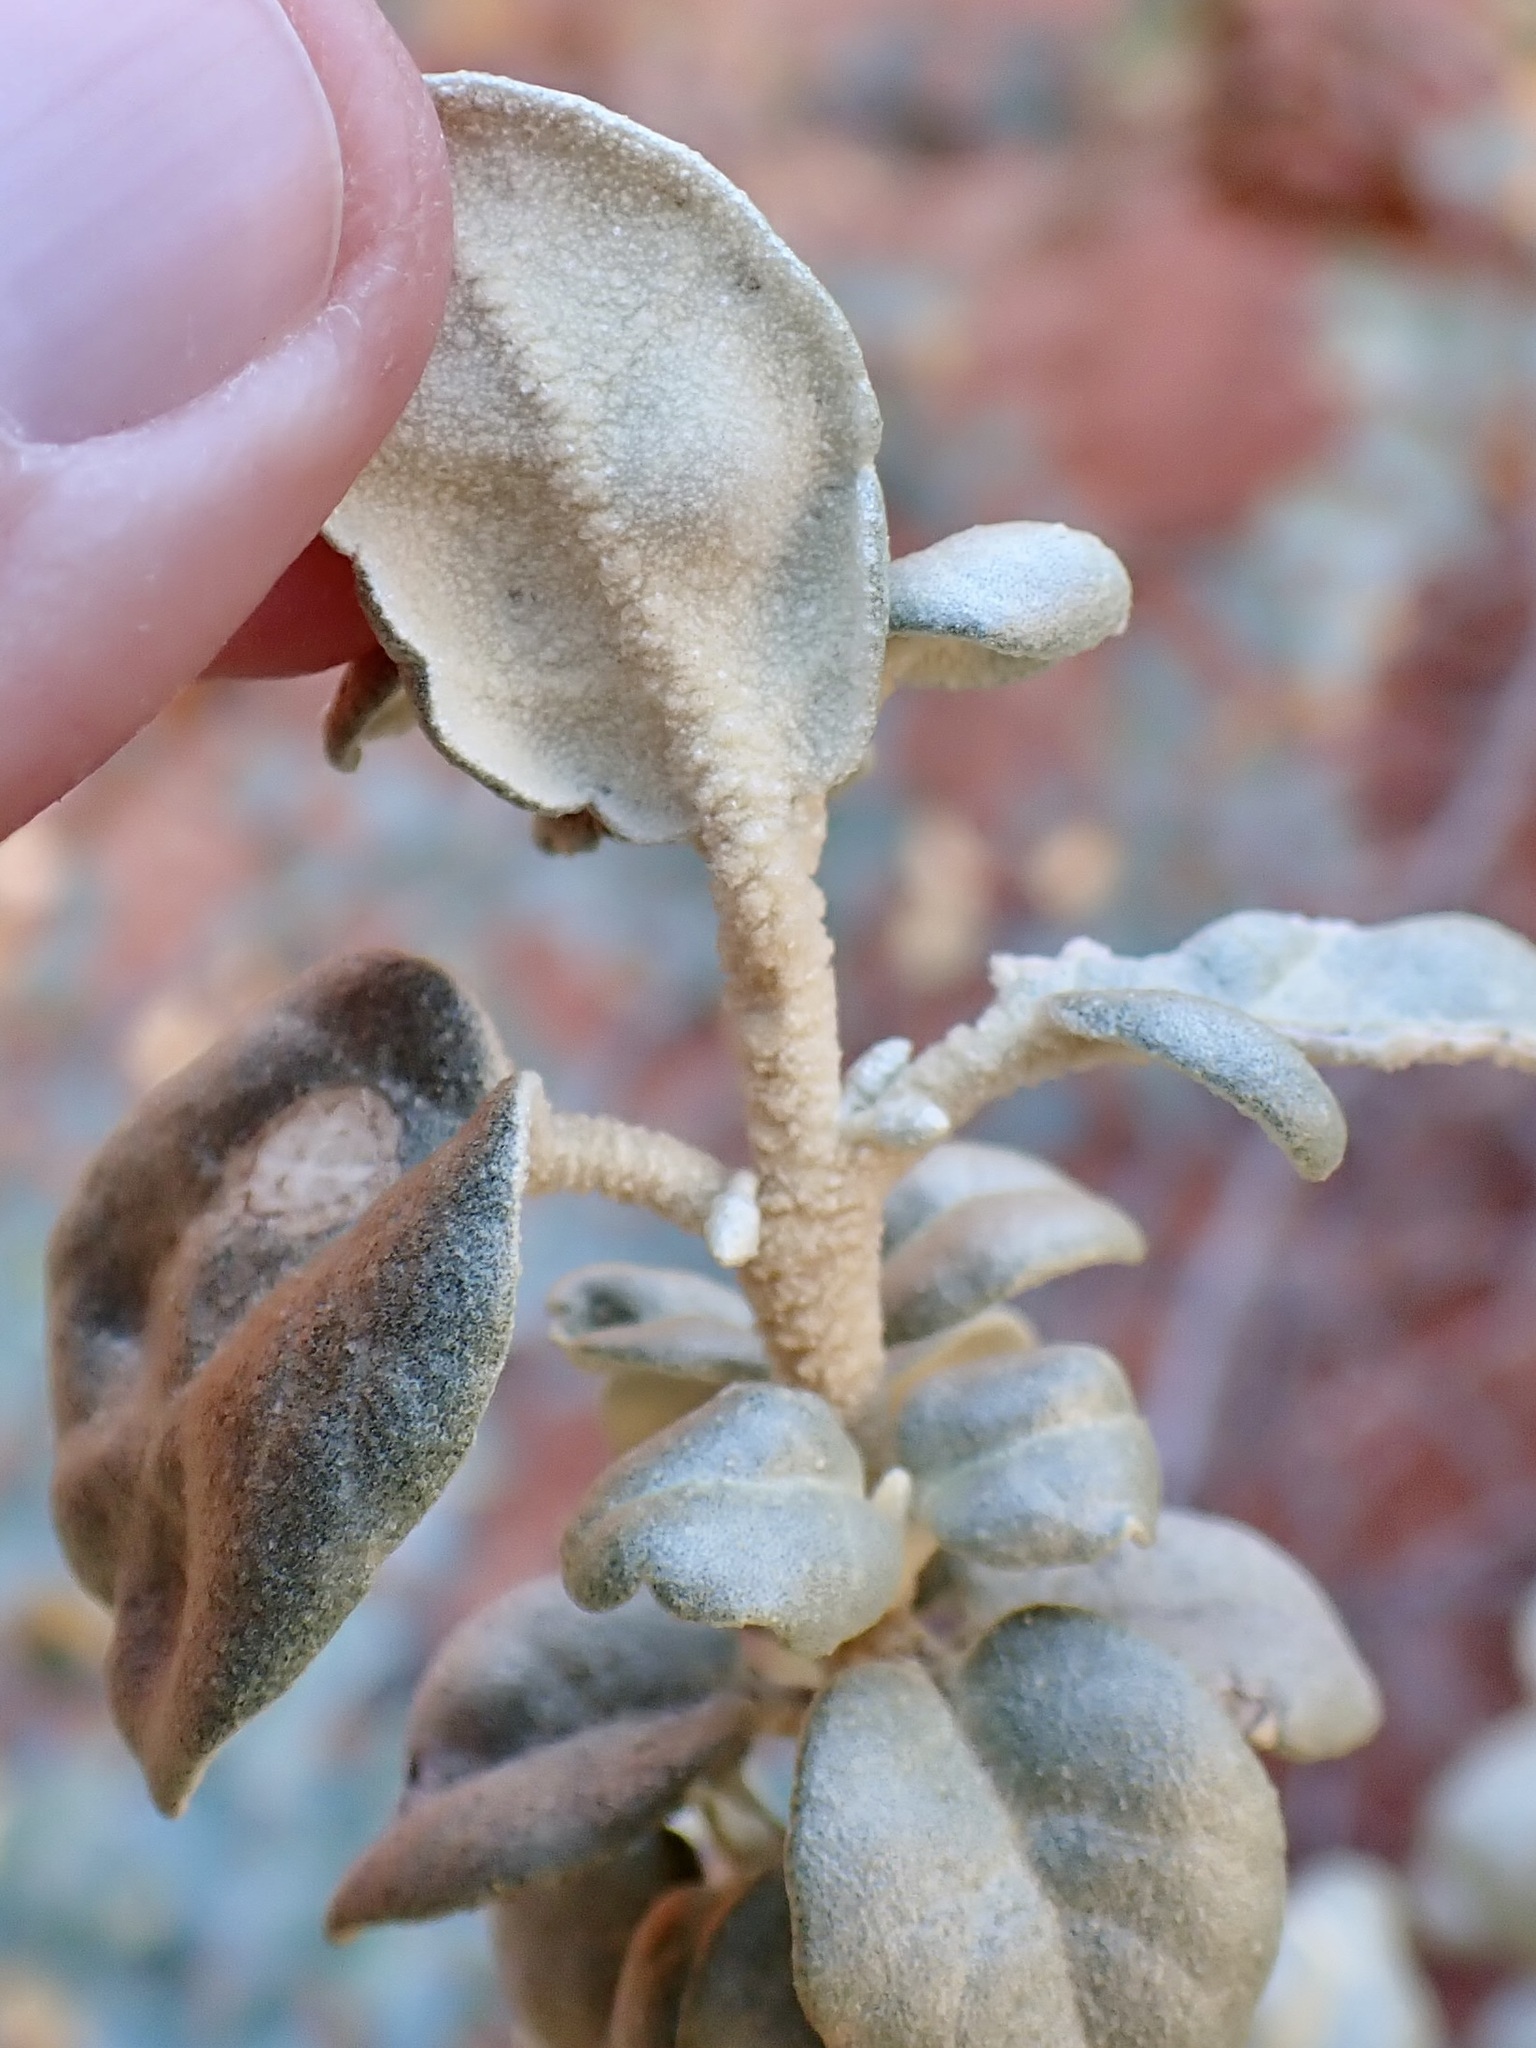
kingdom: Plantae
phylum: Tracheophyta
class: Magnoliopsida
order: Rosales
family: Elaeagnaceae
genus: Shepherdia
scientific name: Shepherdia rotundifolia
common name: Silverscale
